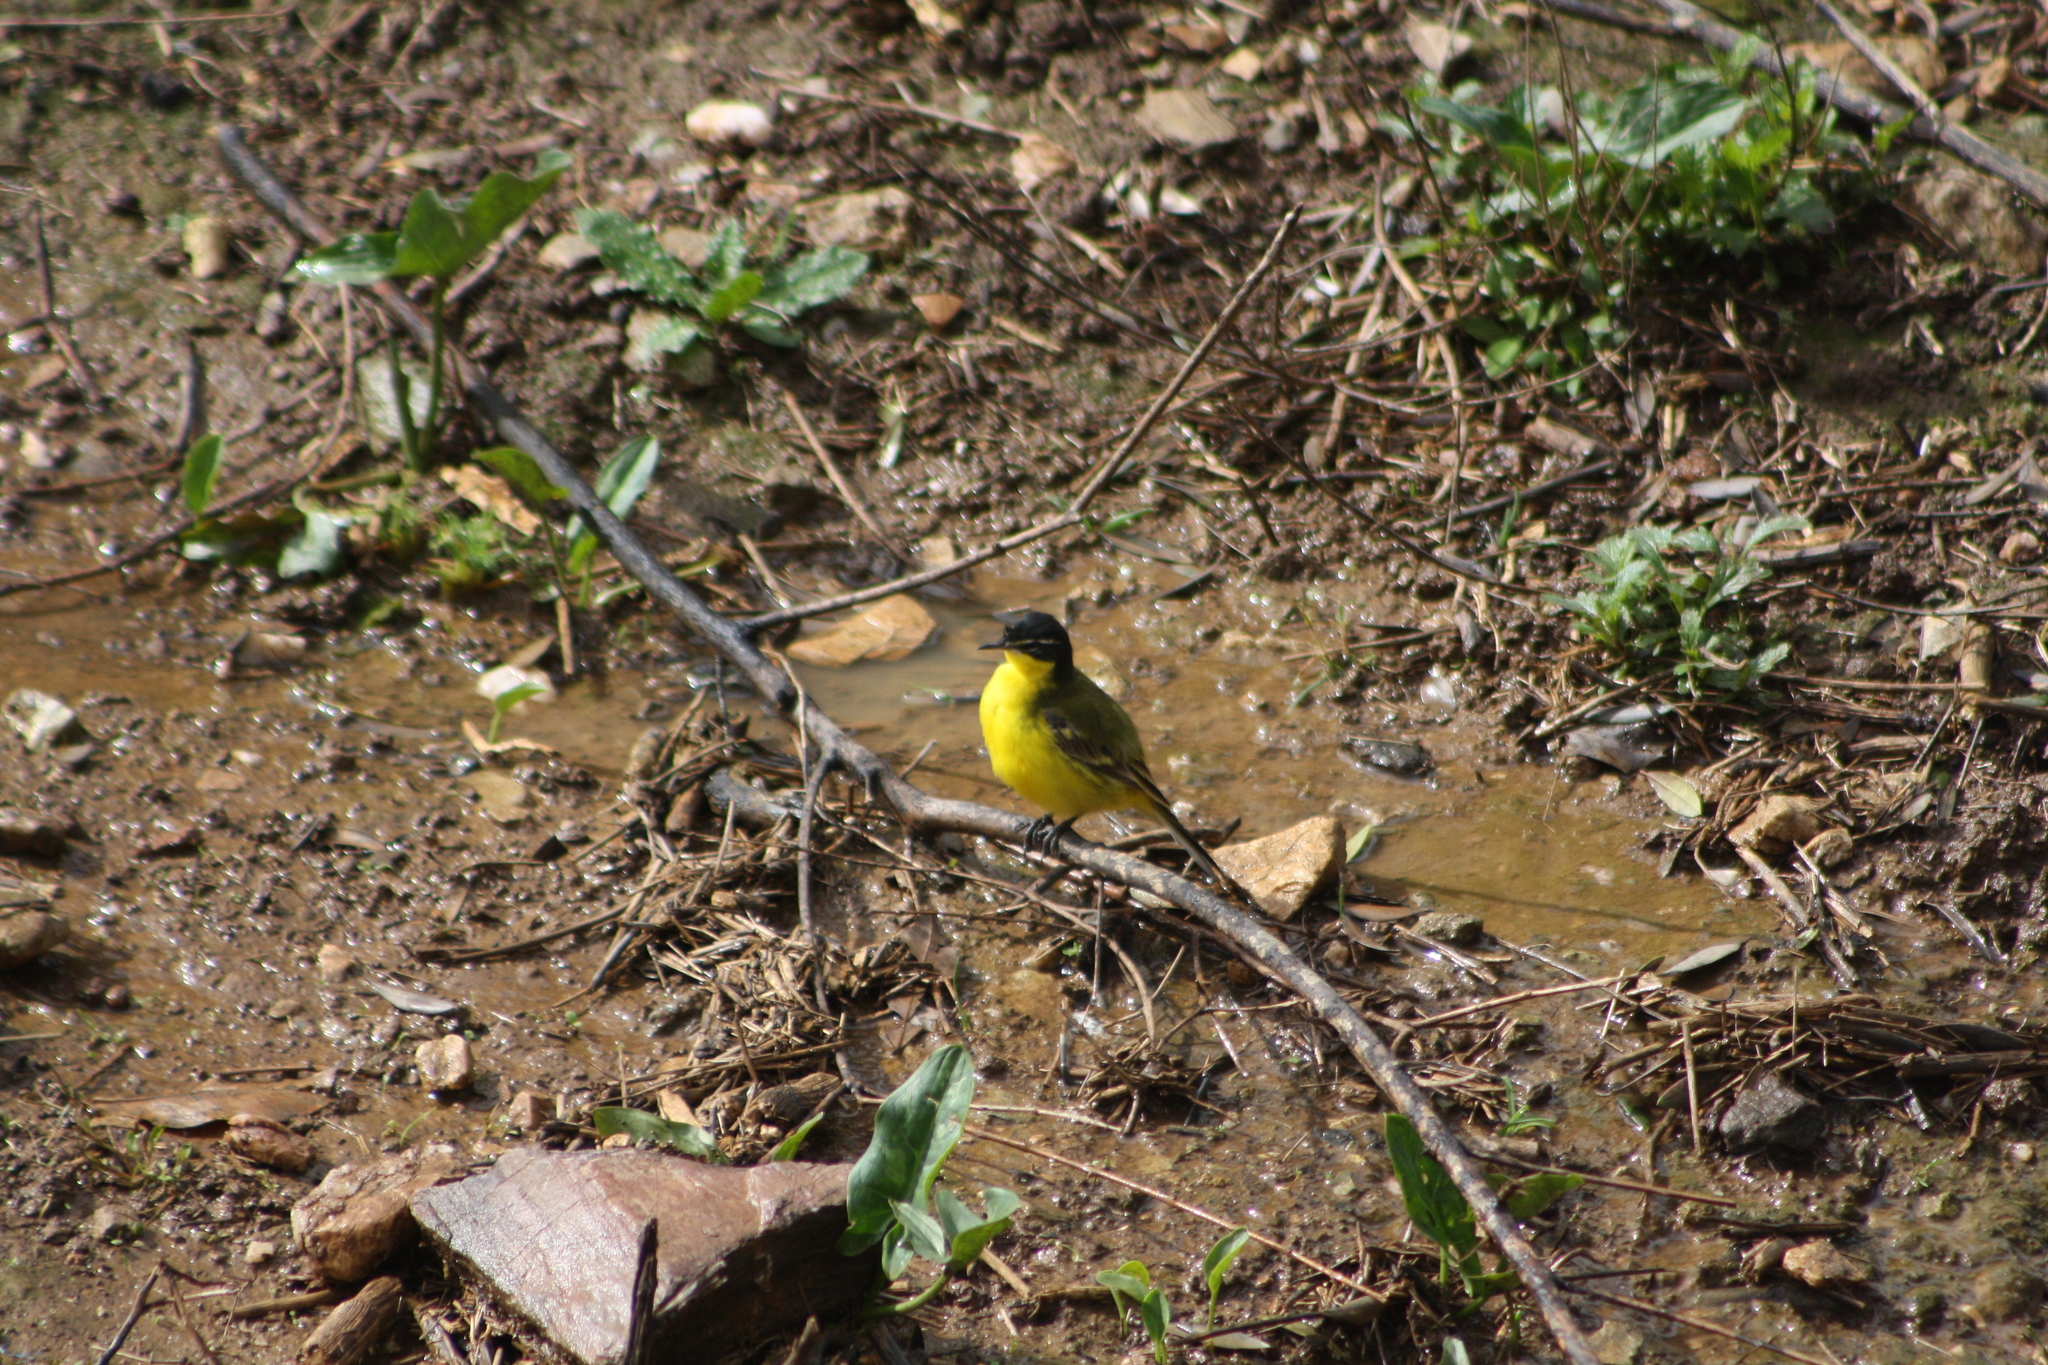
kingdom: Animalia
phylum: Chordata
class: Aves
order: Passeriformes
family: Motacillidae
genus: Motacilla
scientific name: Motacilla flava
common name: Western yellow wagtail
